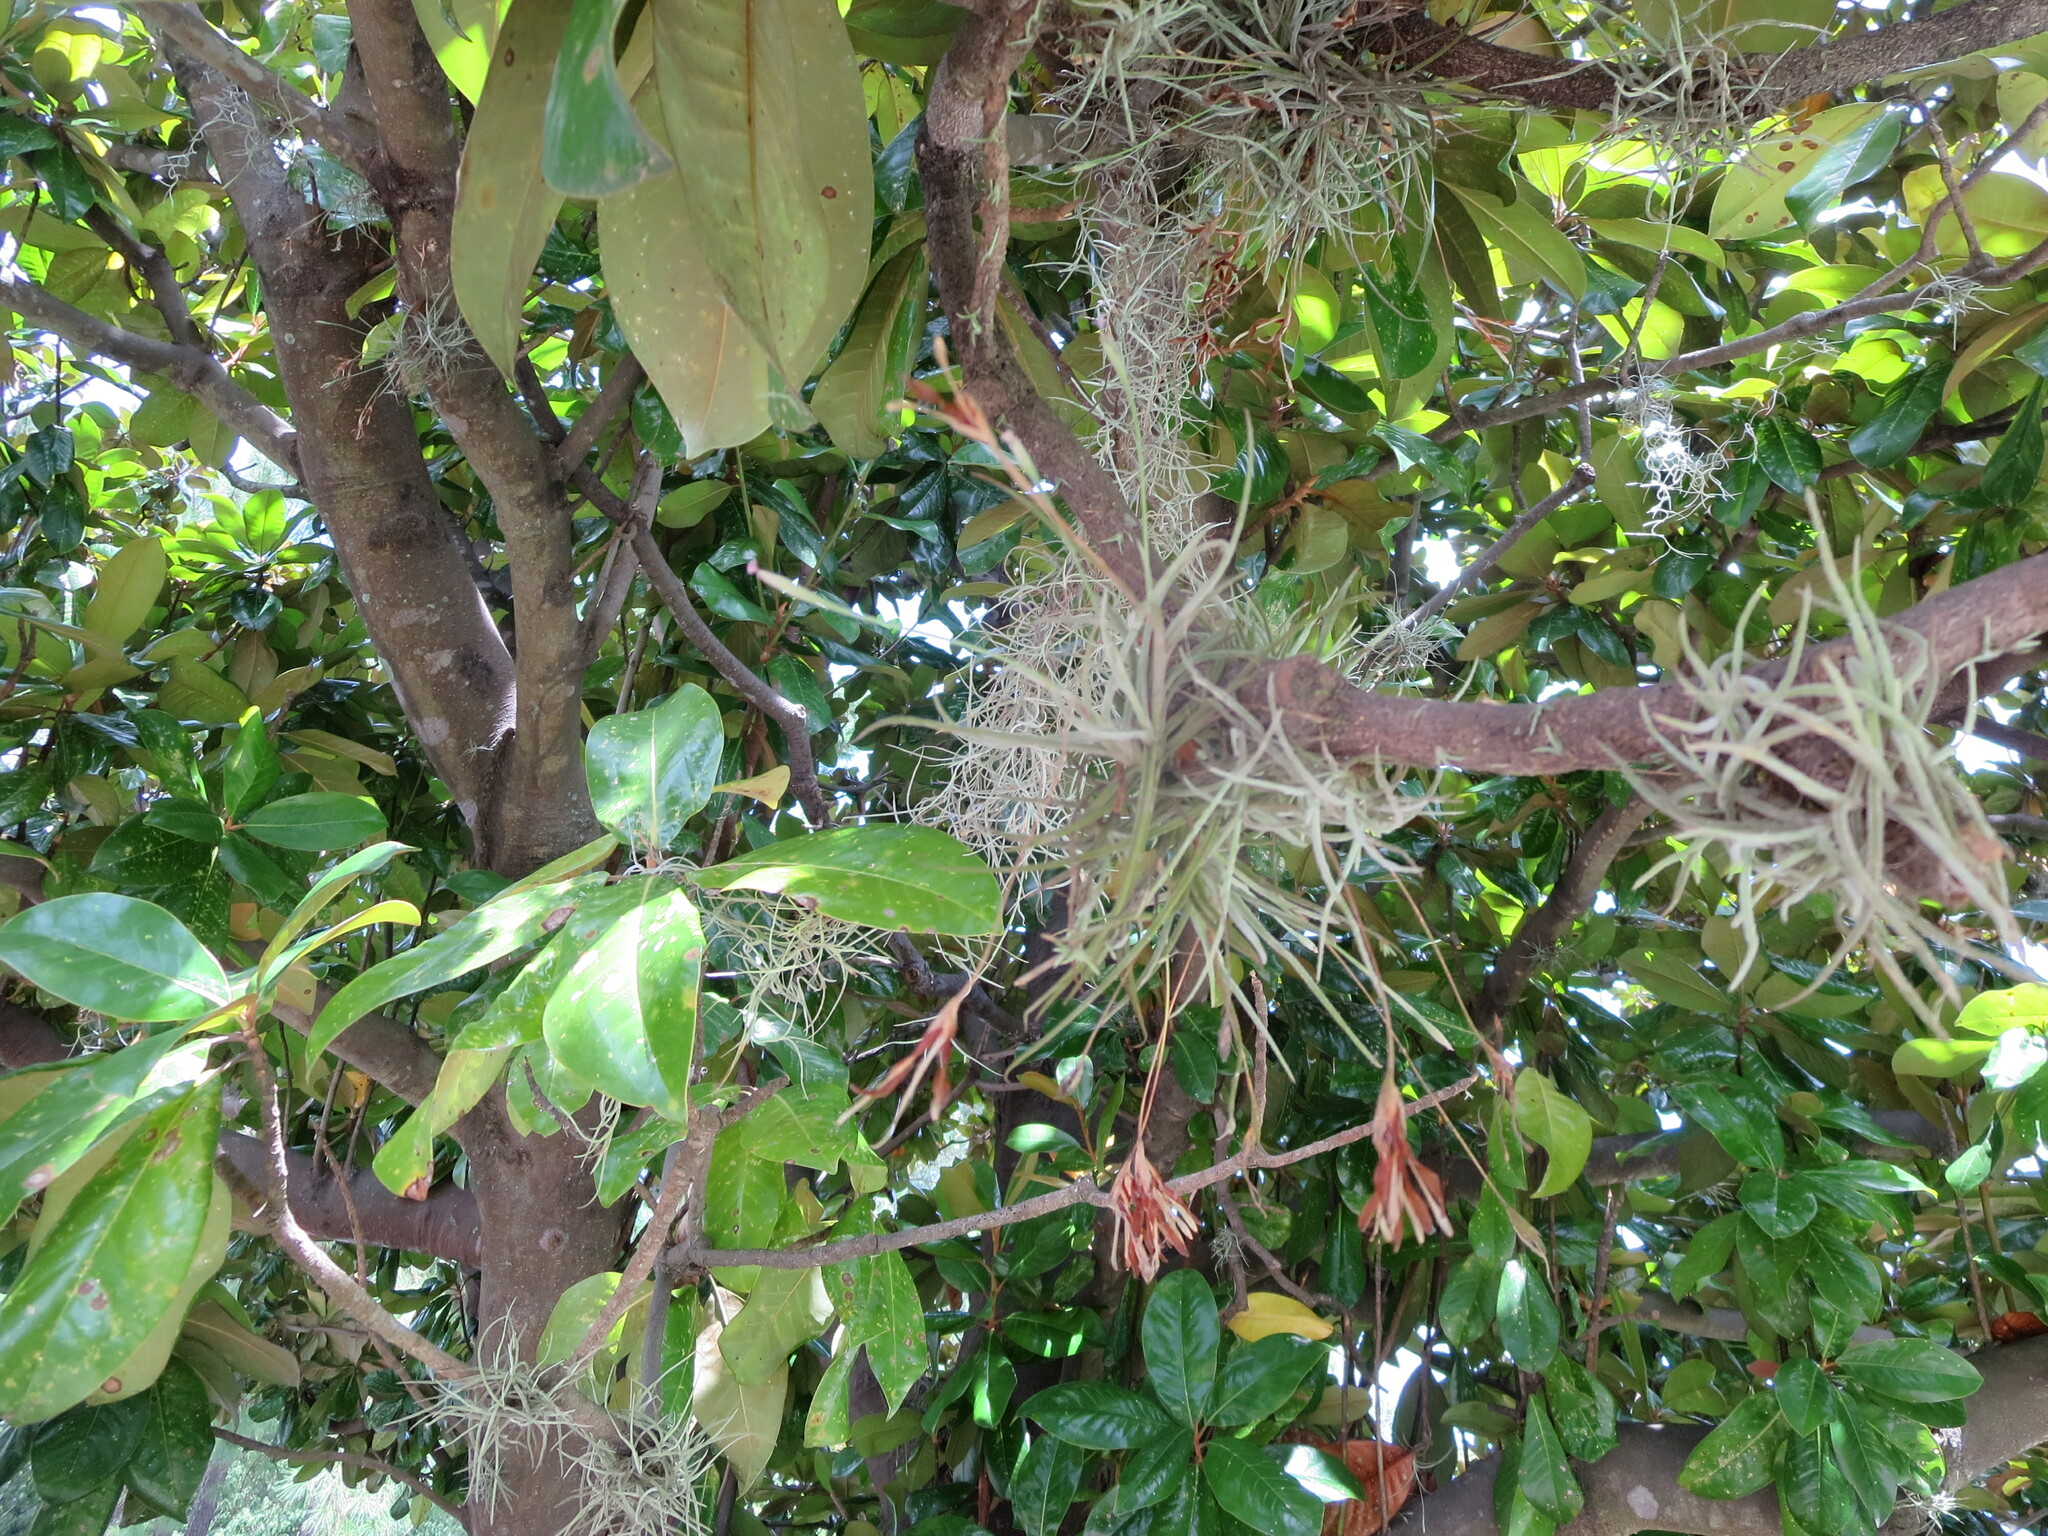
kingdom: Plantae
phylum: Tracheophyta
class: Liliopsida
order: Poales
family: Bromeliaceae
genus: Tillandsia
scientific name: Tillandsia recurvata
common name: Small ballmoss
